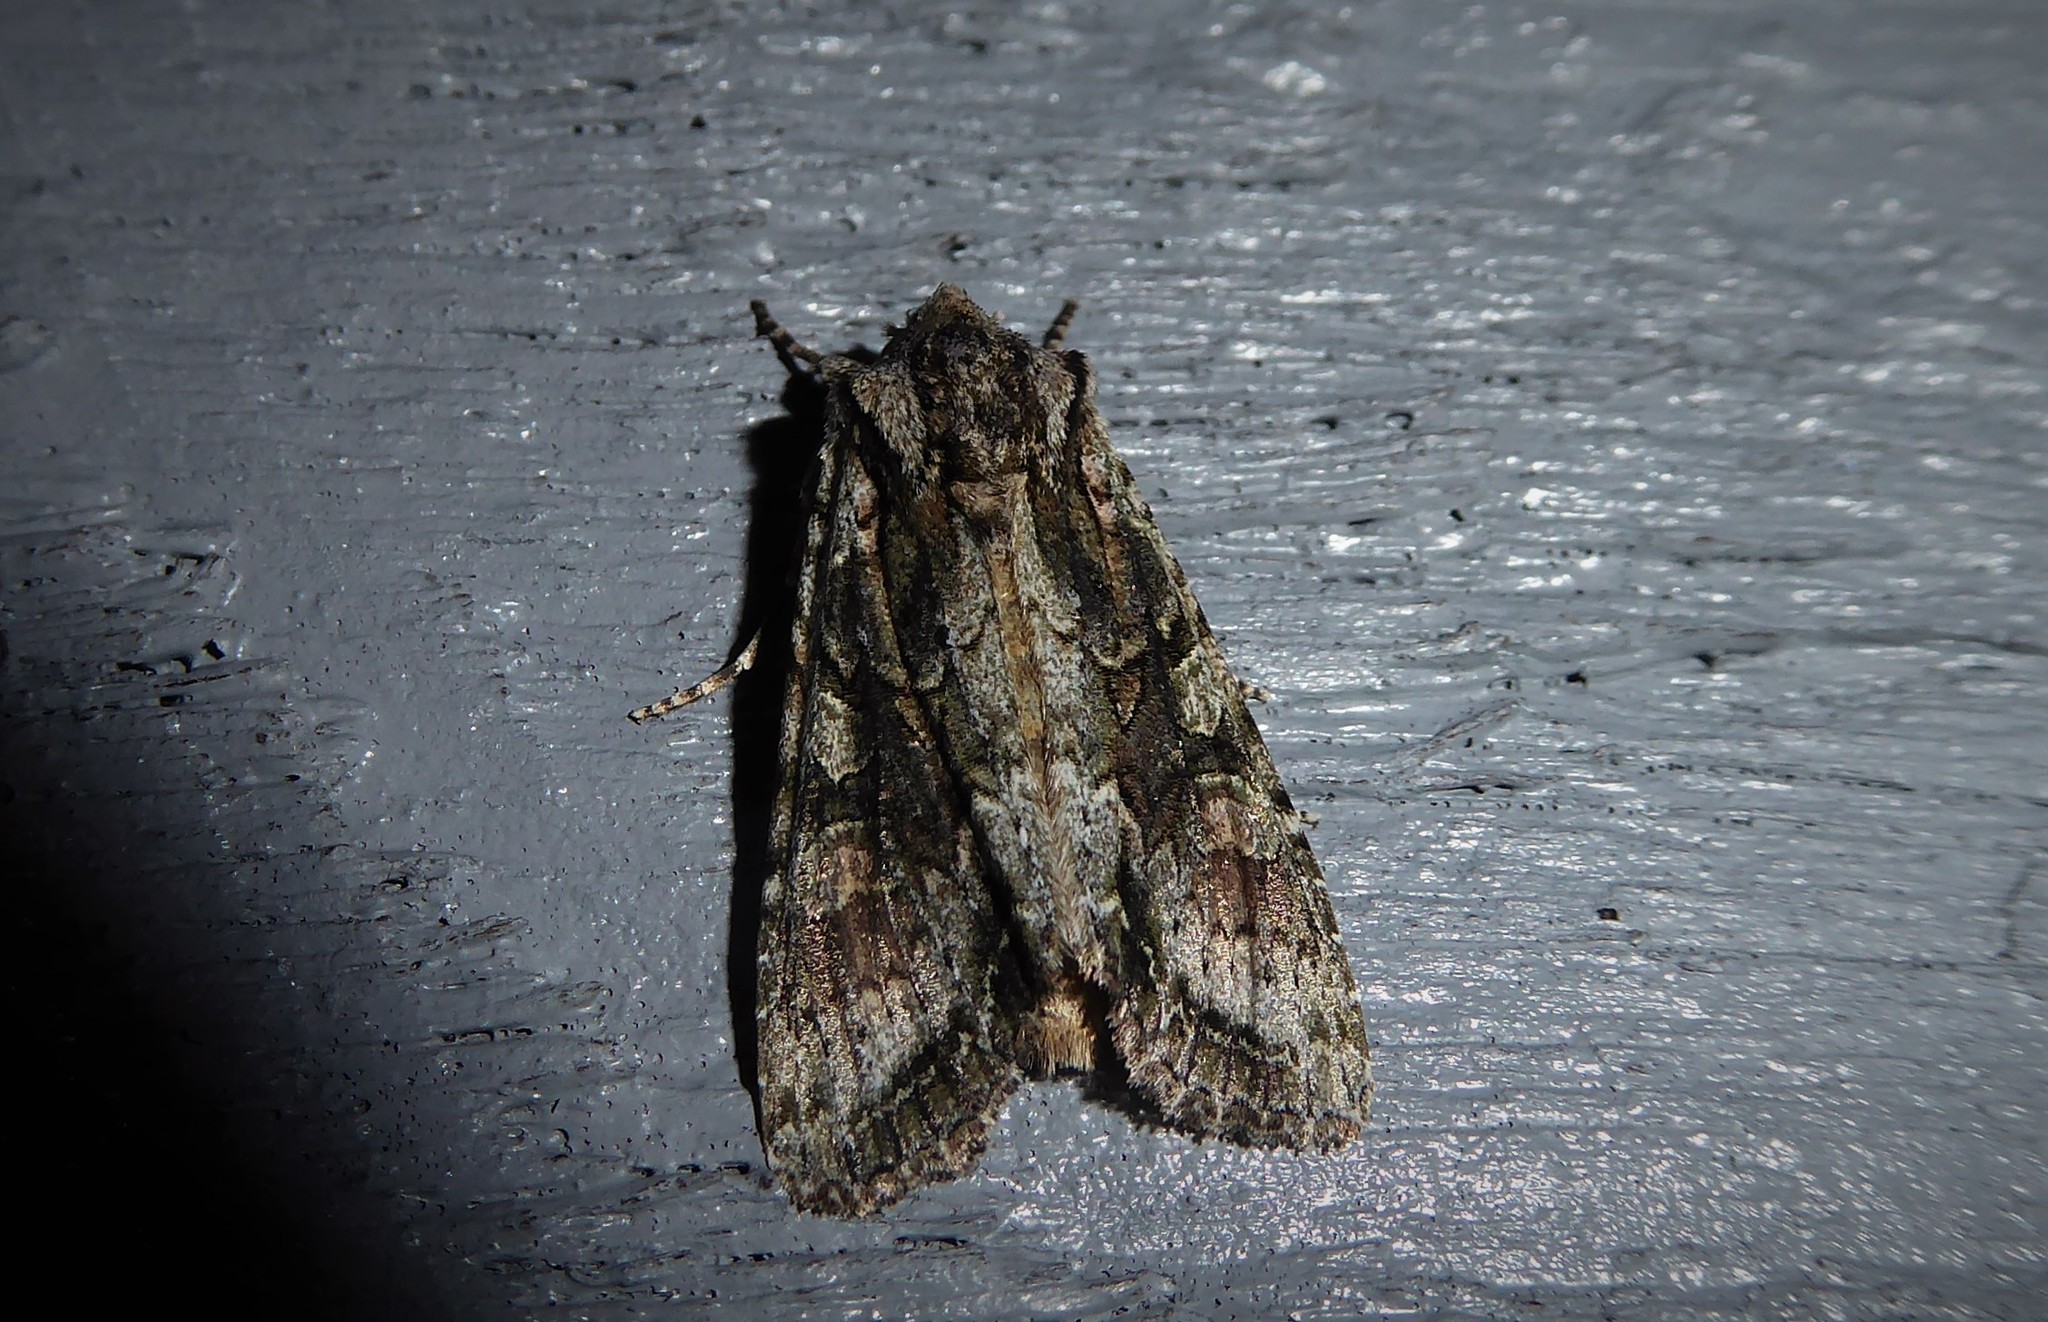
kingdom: Animalia
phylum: Arthropoda
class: Insecta
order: Lepidoptera
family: Noctuidae
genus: Ichneutica
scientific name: Ichneutica mutans
